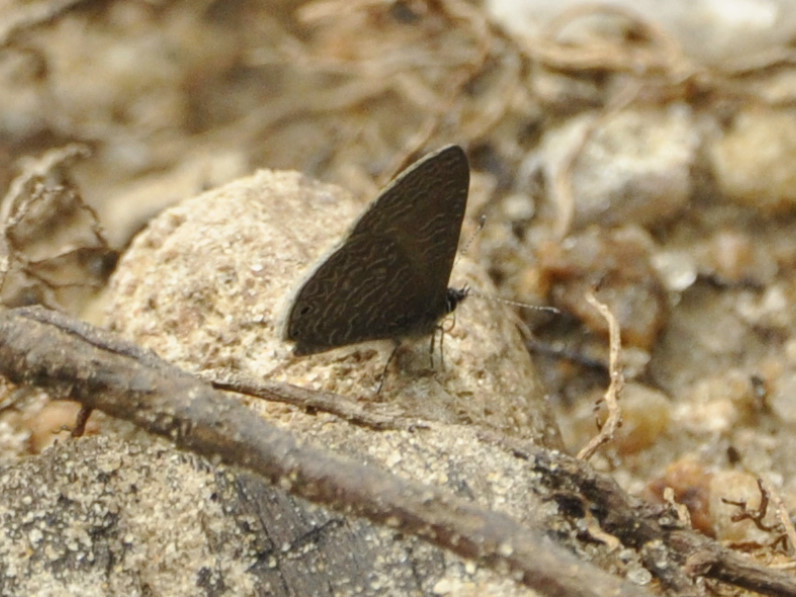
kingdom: Animalia
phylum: Arthropoda
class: Insecta
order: Lepidoptera
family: Lycaenidae
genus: Pseudonacaduba
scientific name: Pseudonacaduba sichela
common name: African line blue
